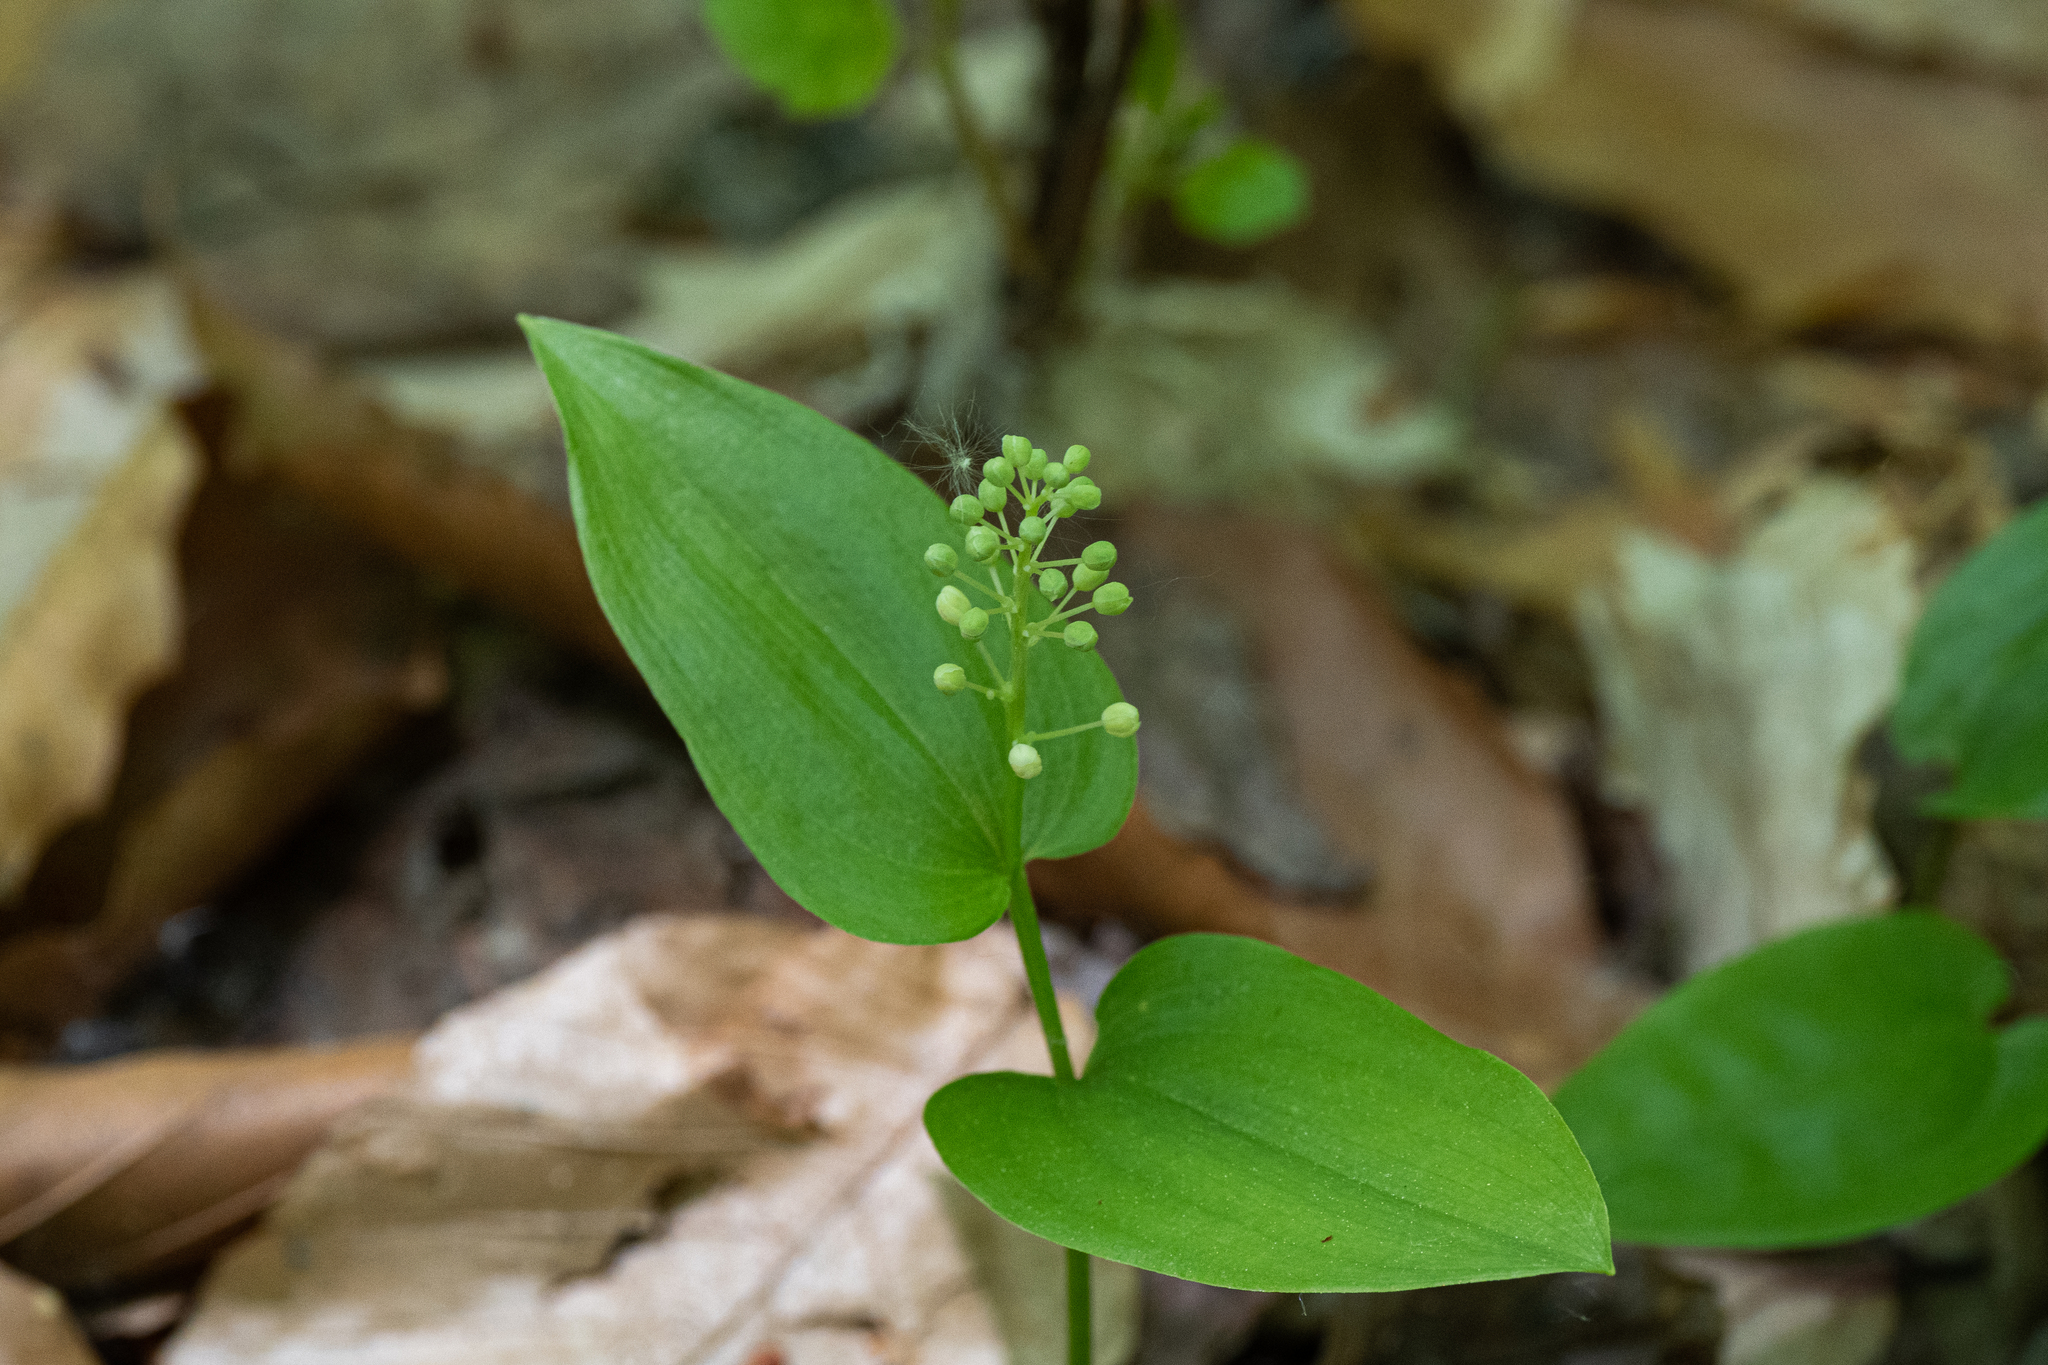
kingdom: Plantae
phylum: Tracheophyta
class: Liliopsida
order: Asparagales
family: Asparagaceae
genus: Maianthemum
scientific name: Maianthemum canadense
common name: False lily-of-the-valley
